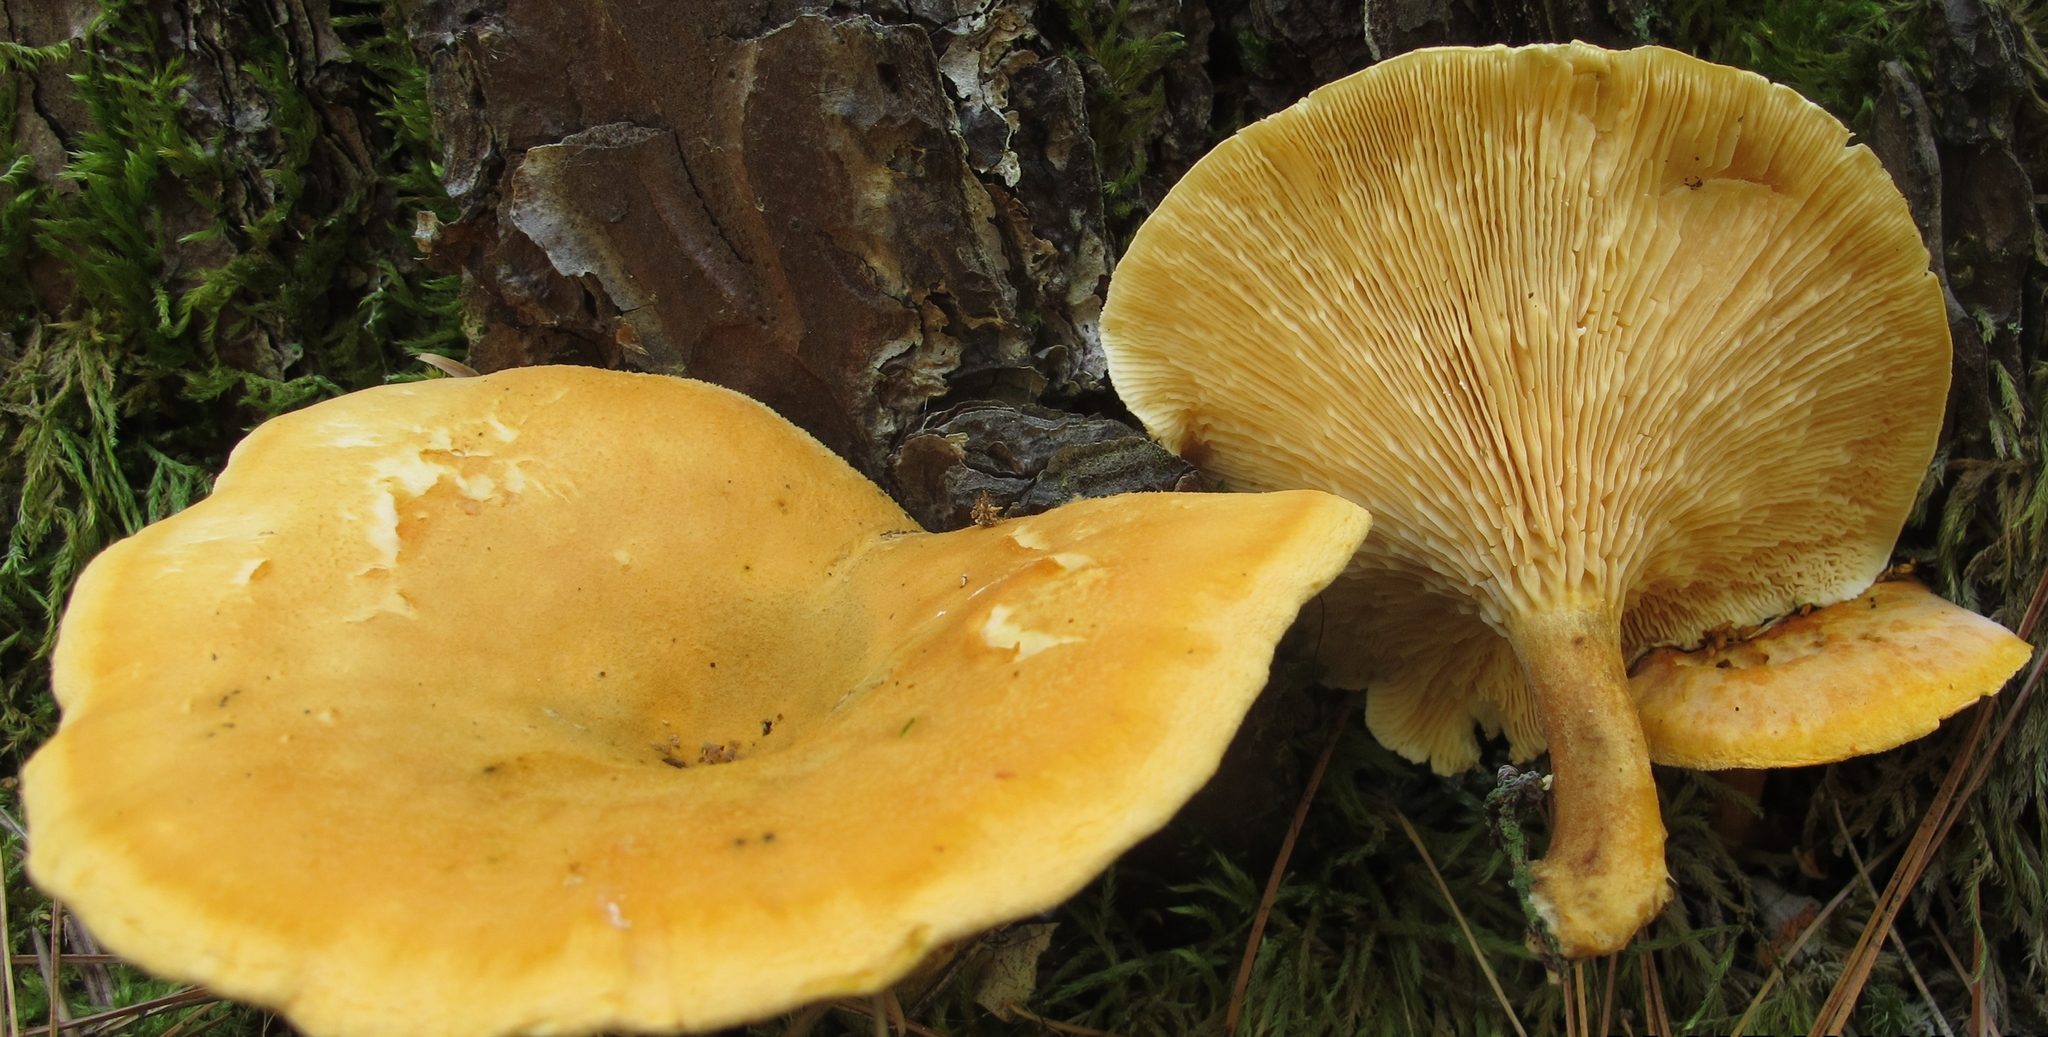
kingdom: Fungi
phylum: Basidiomycota
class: Agaricomycetes
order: Boletales
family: Hygrophoropsidaceae
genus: Hygrophoropsis
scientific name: Hygrophoropsis aurantiaca
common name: False chanterelle
